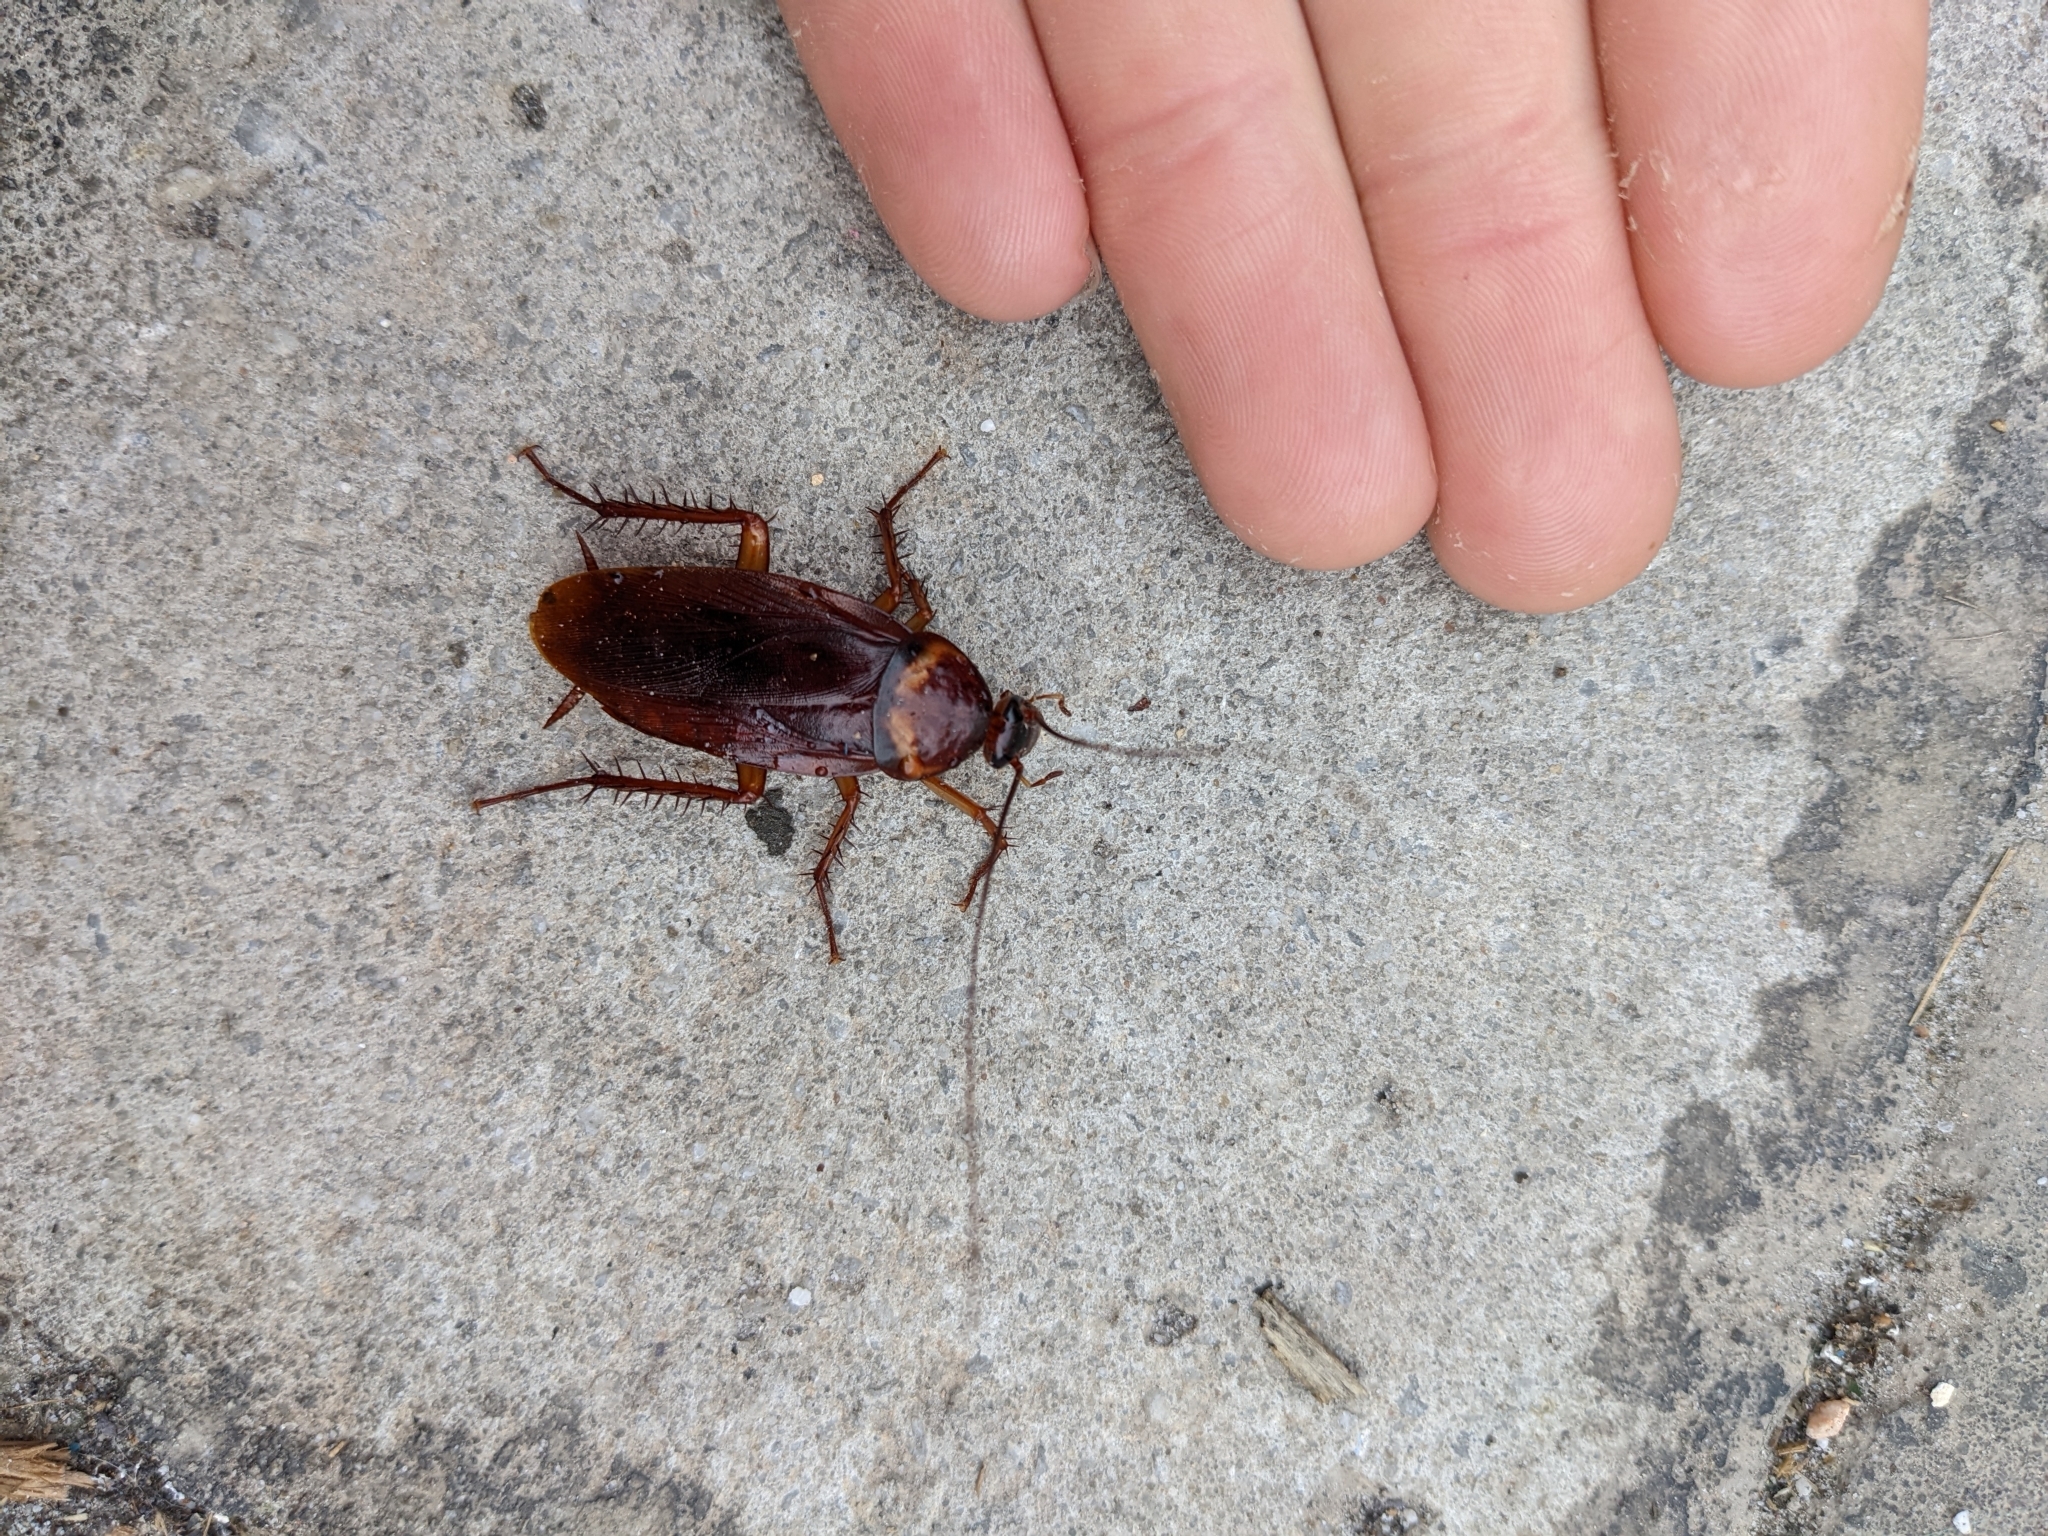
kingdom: Animalia
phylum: Arthropoda
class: Insecta
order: Blattodea
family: Blattidae
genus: Periplaneta
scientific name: Periplaneta americana
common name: American cockroach
